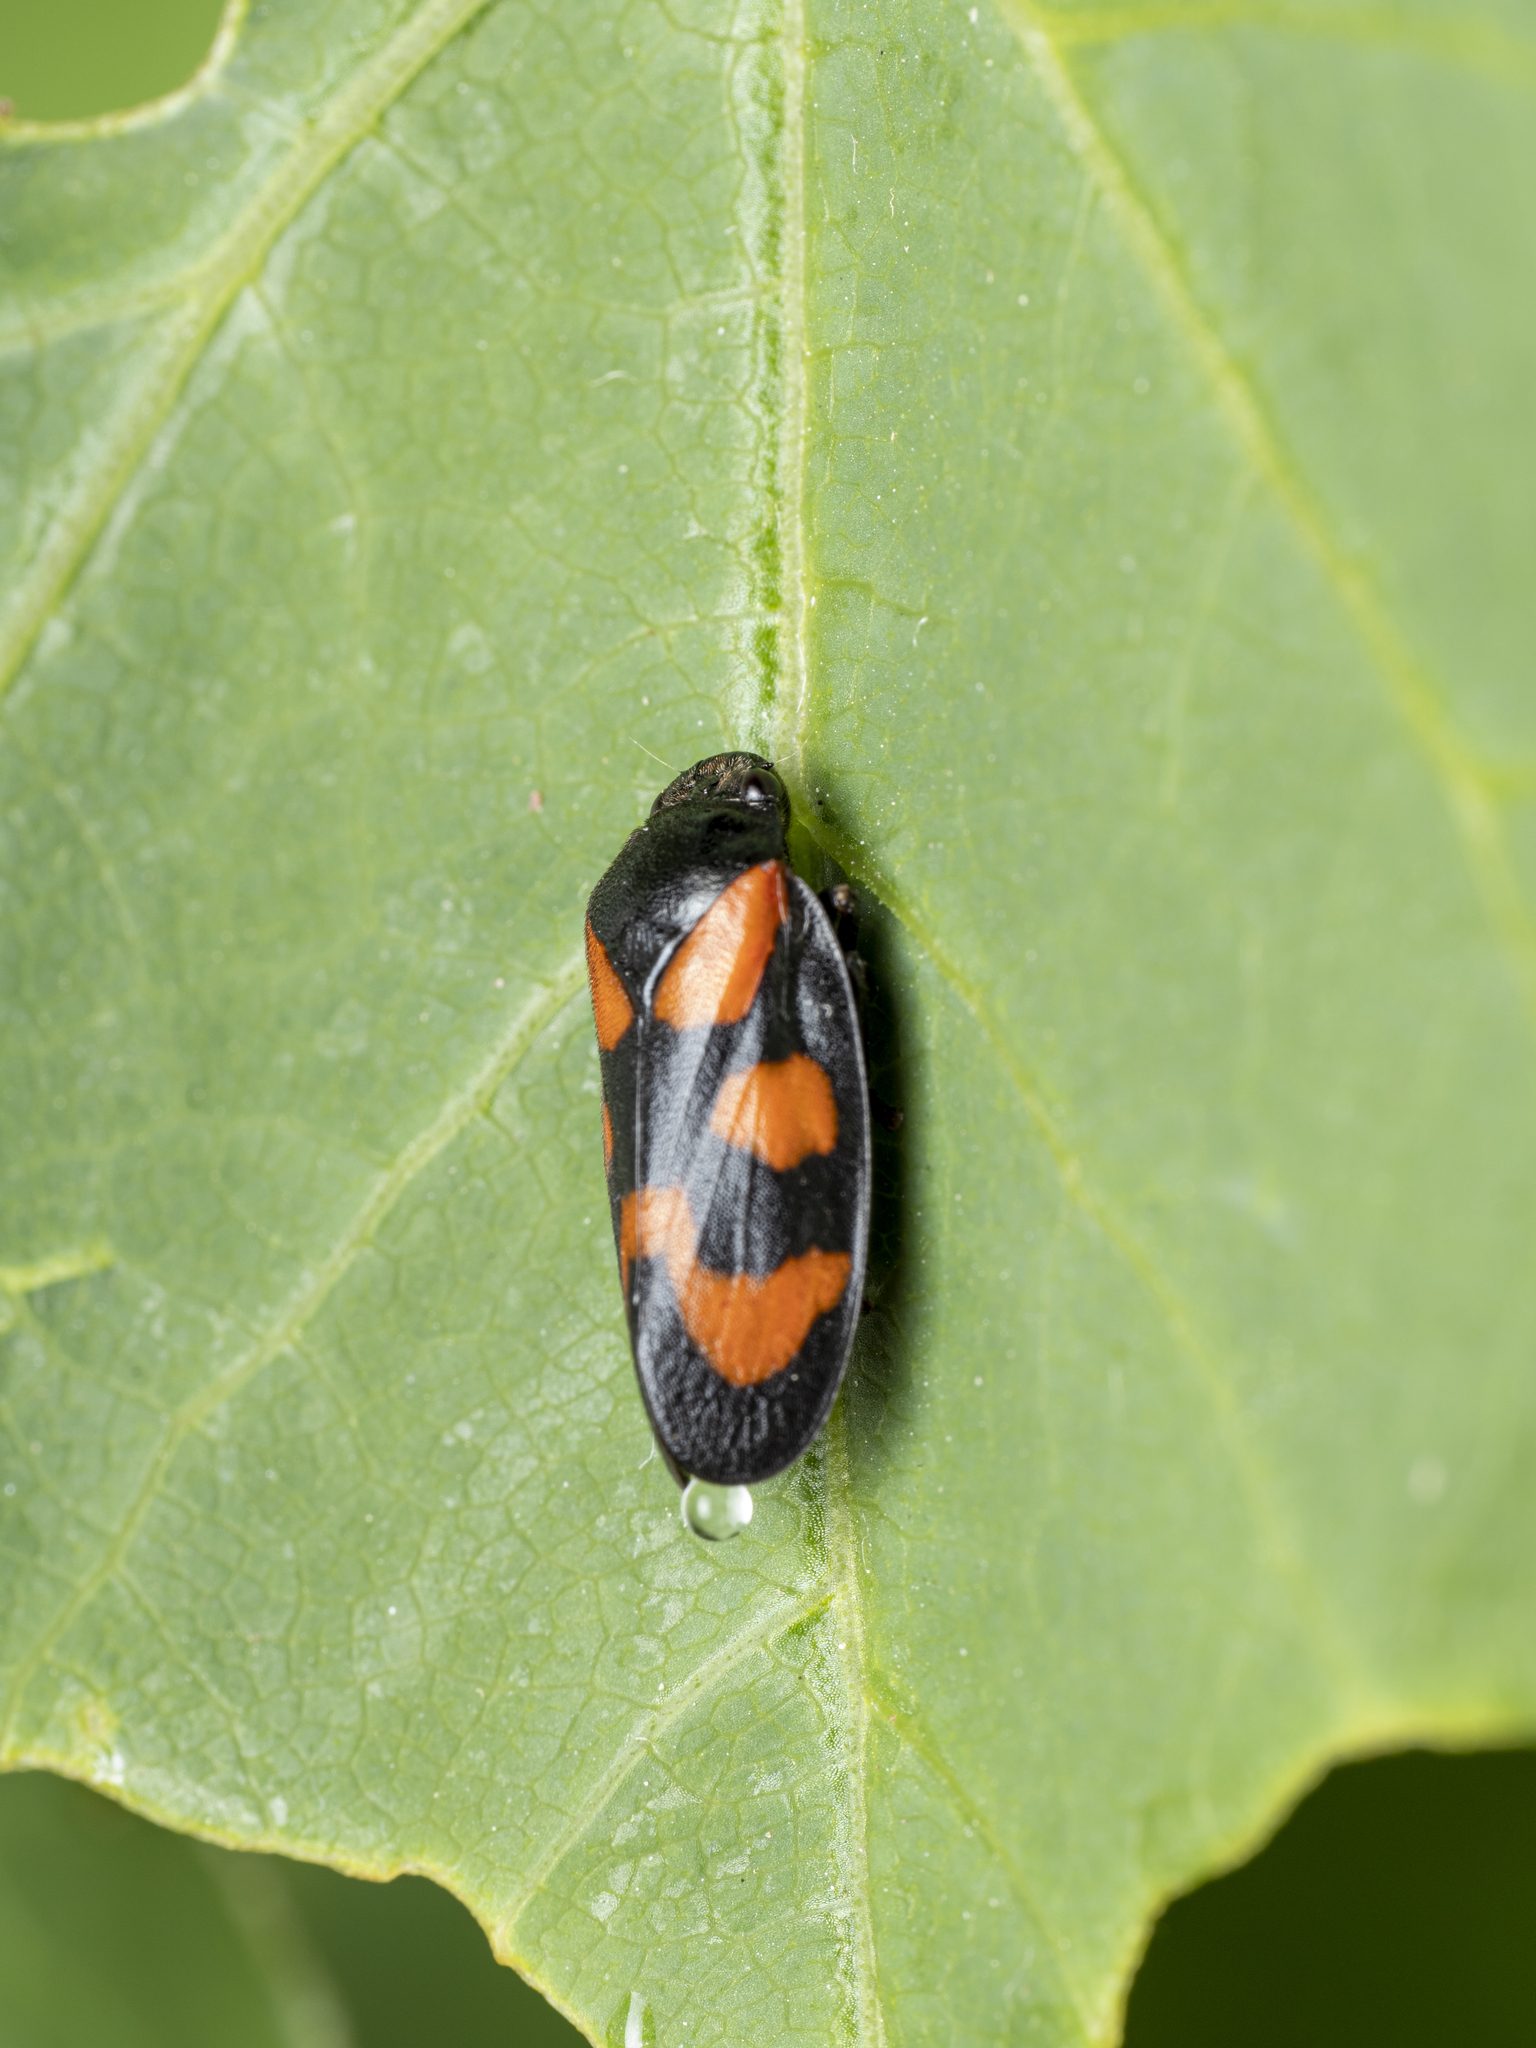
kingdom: Animalia
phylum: Arthropoda
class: Insecta
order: Hemiptera
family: Cercopidae
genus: Cercopis
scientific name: Cercopis vulnerata
